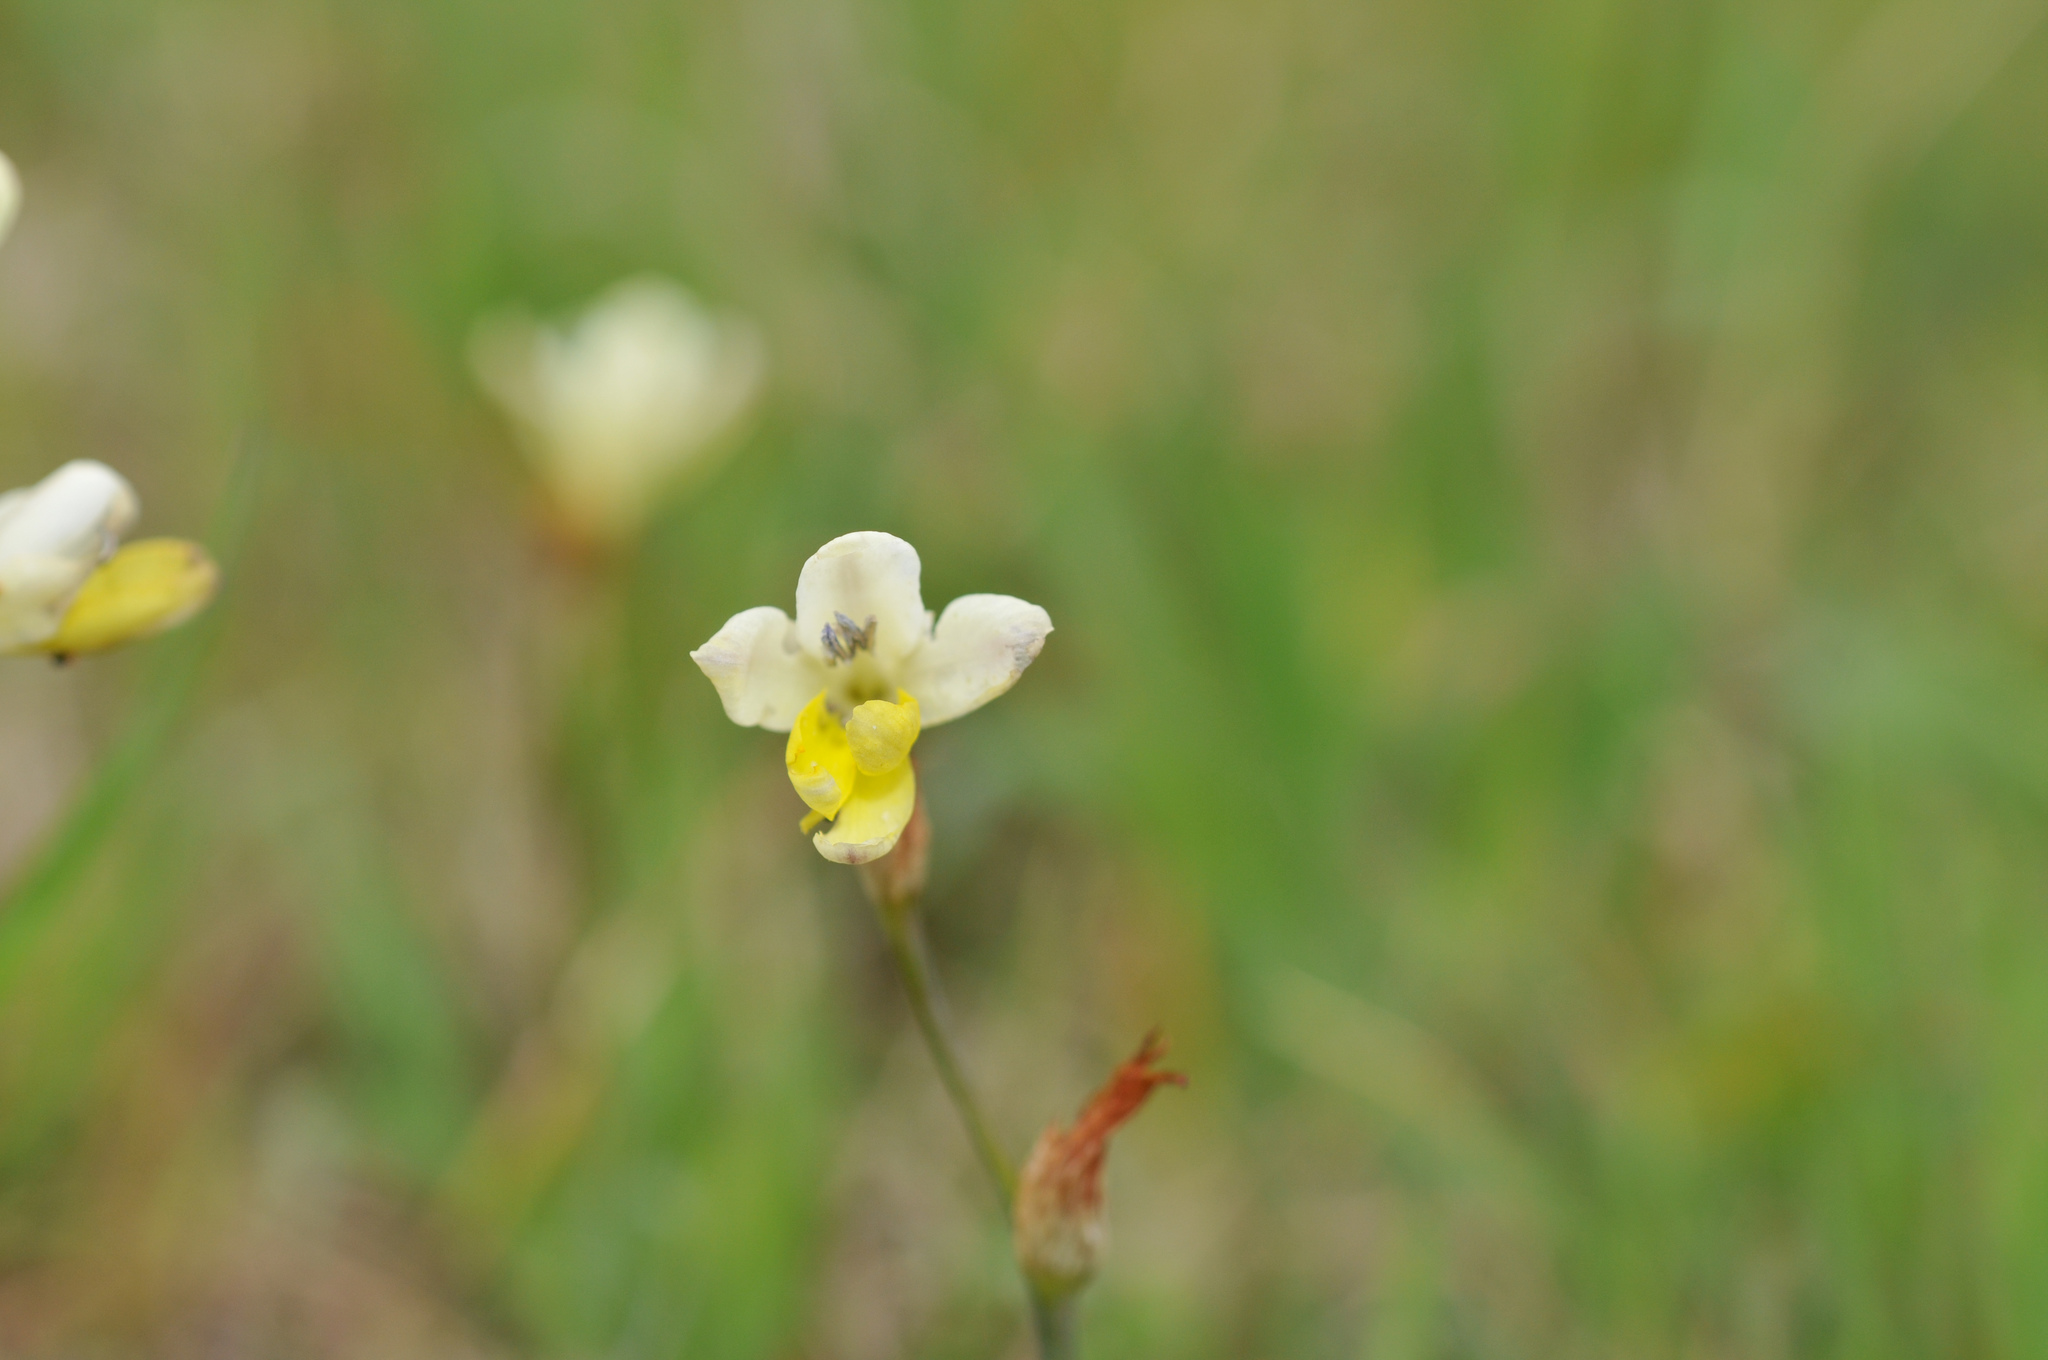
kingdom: Plantae
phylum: Tracheophyta
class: Liliopsida
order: Asparagales
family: Iridaceae
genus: Sparaxis
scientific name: Sparaxis parviflora
